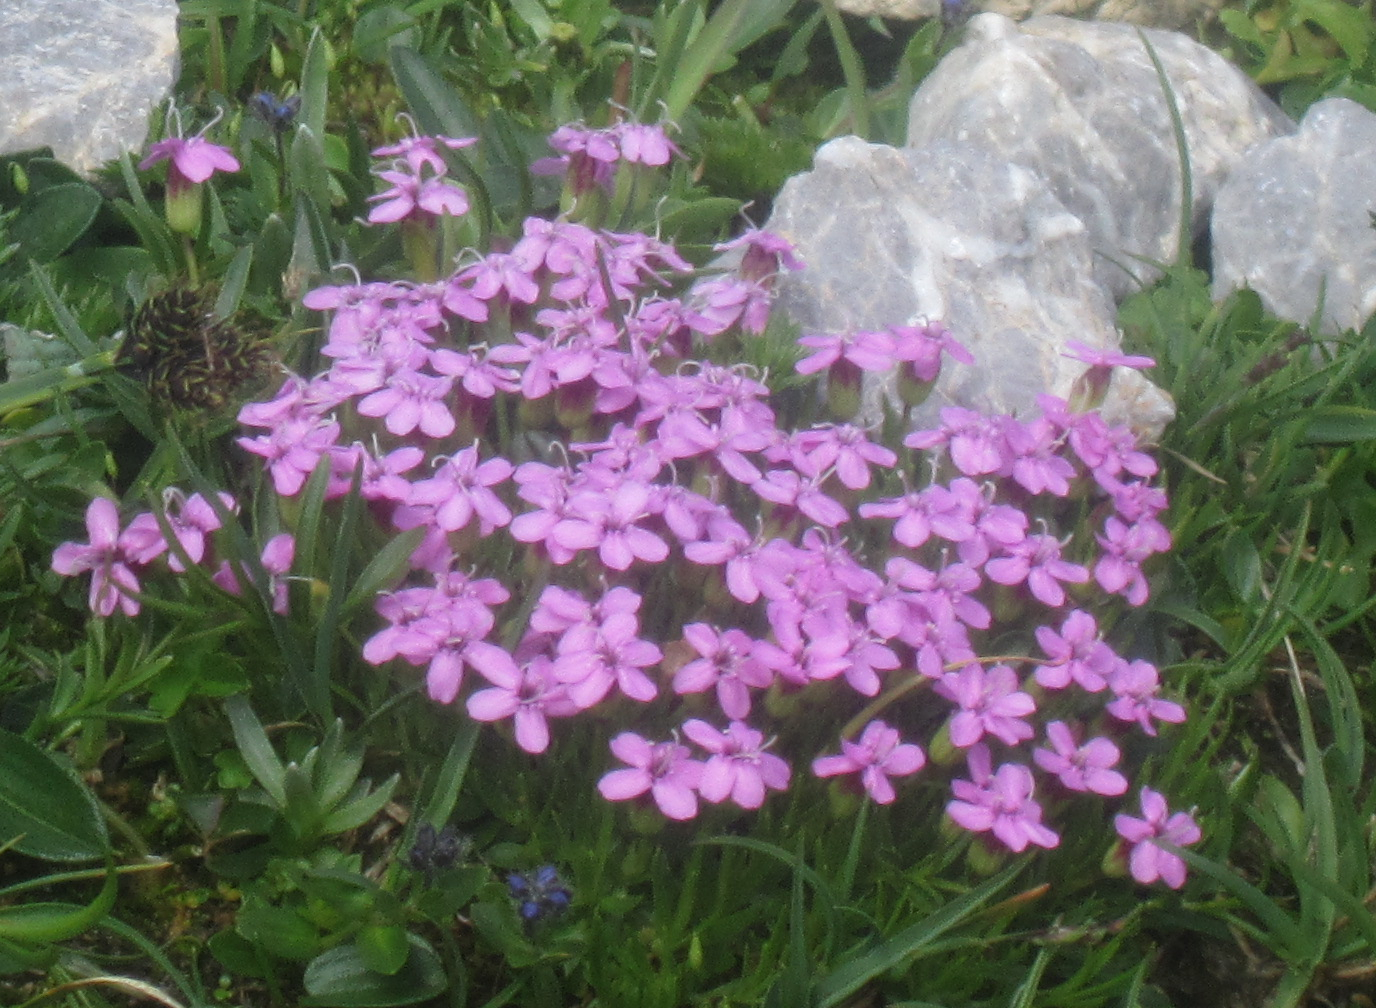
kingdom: Plantae
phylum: Tracheophyta
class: Magnoliopsida
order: Caryophyllales
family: Caryophyllaceae
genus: Silene
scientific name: Silene acaulis
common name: Moss campion
